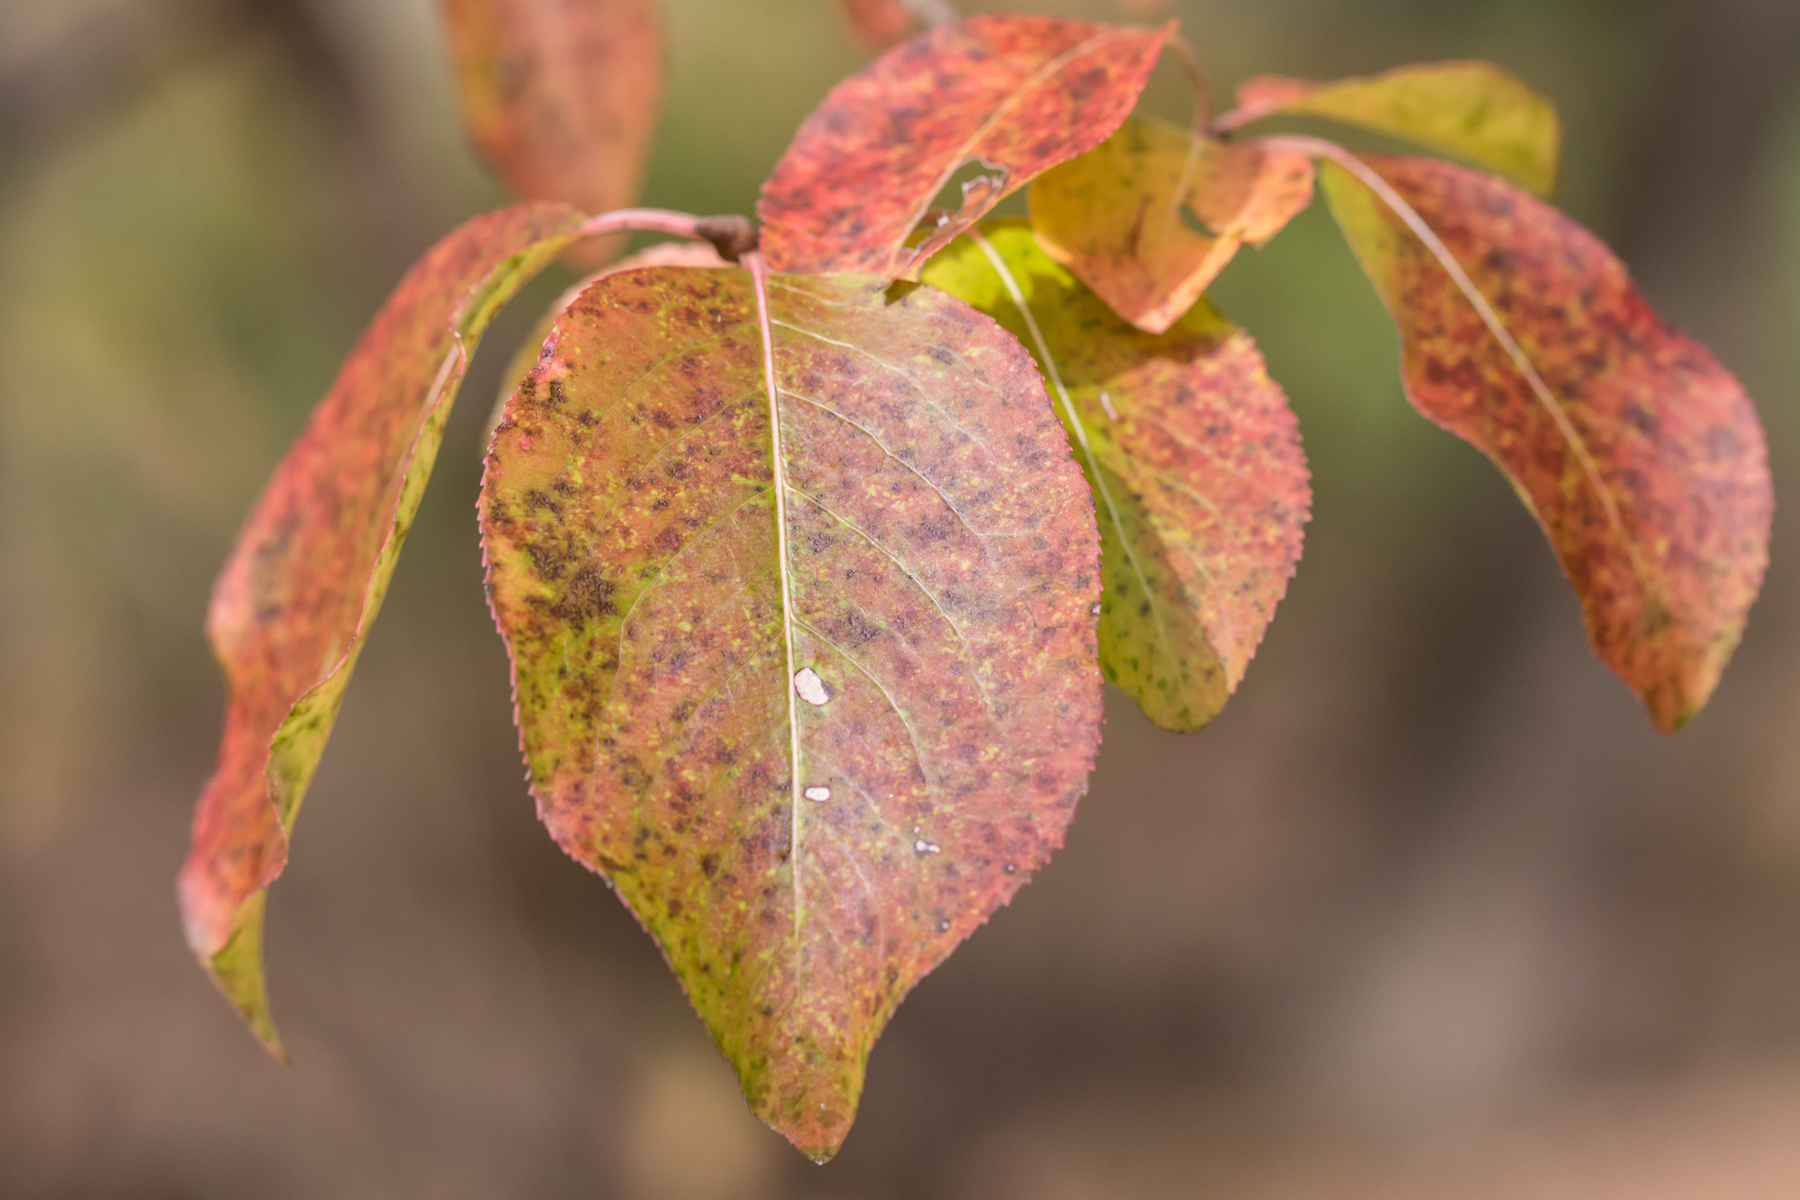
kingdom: Plantae
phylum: Tracheophyta
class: Magnoliopsida
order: Dipsacales
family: Viburnaceae
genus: Viburnum
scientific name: Viburnum prunifolium
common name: Black haw
